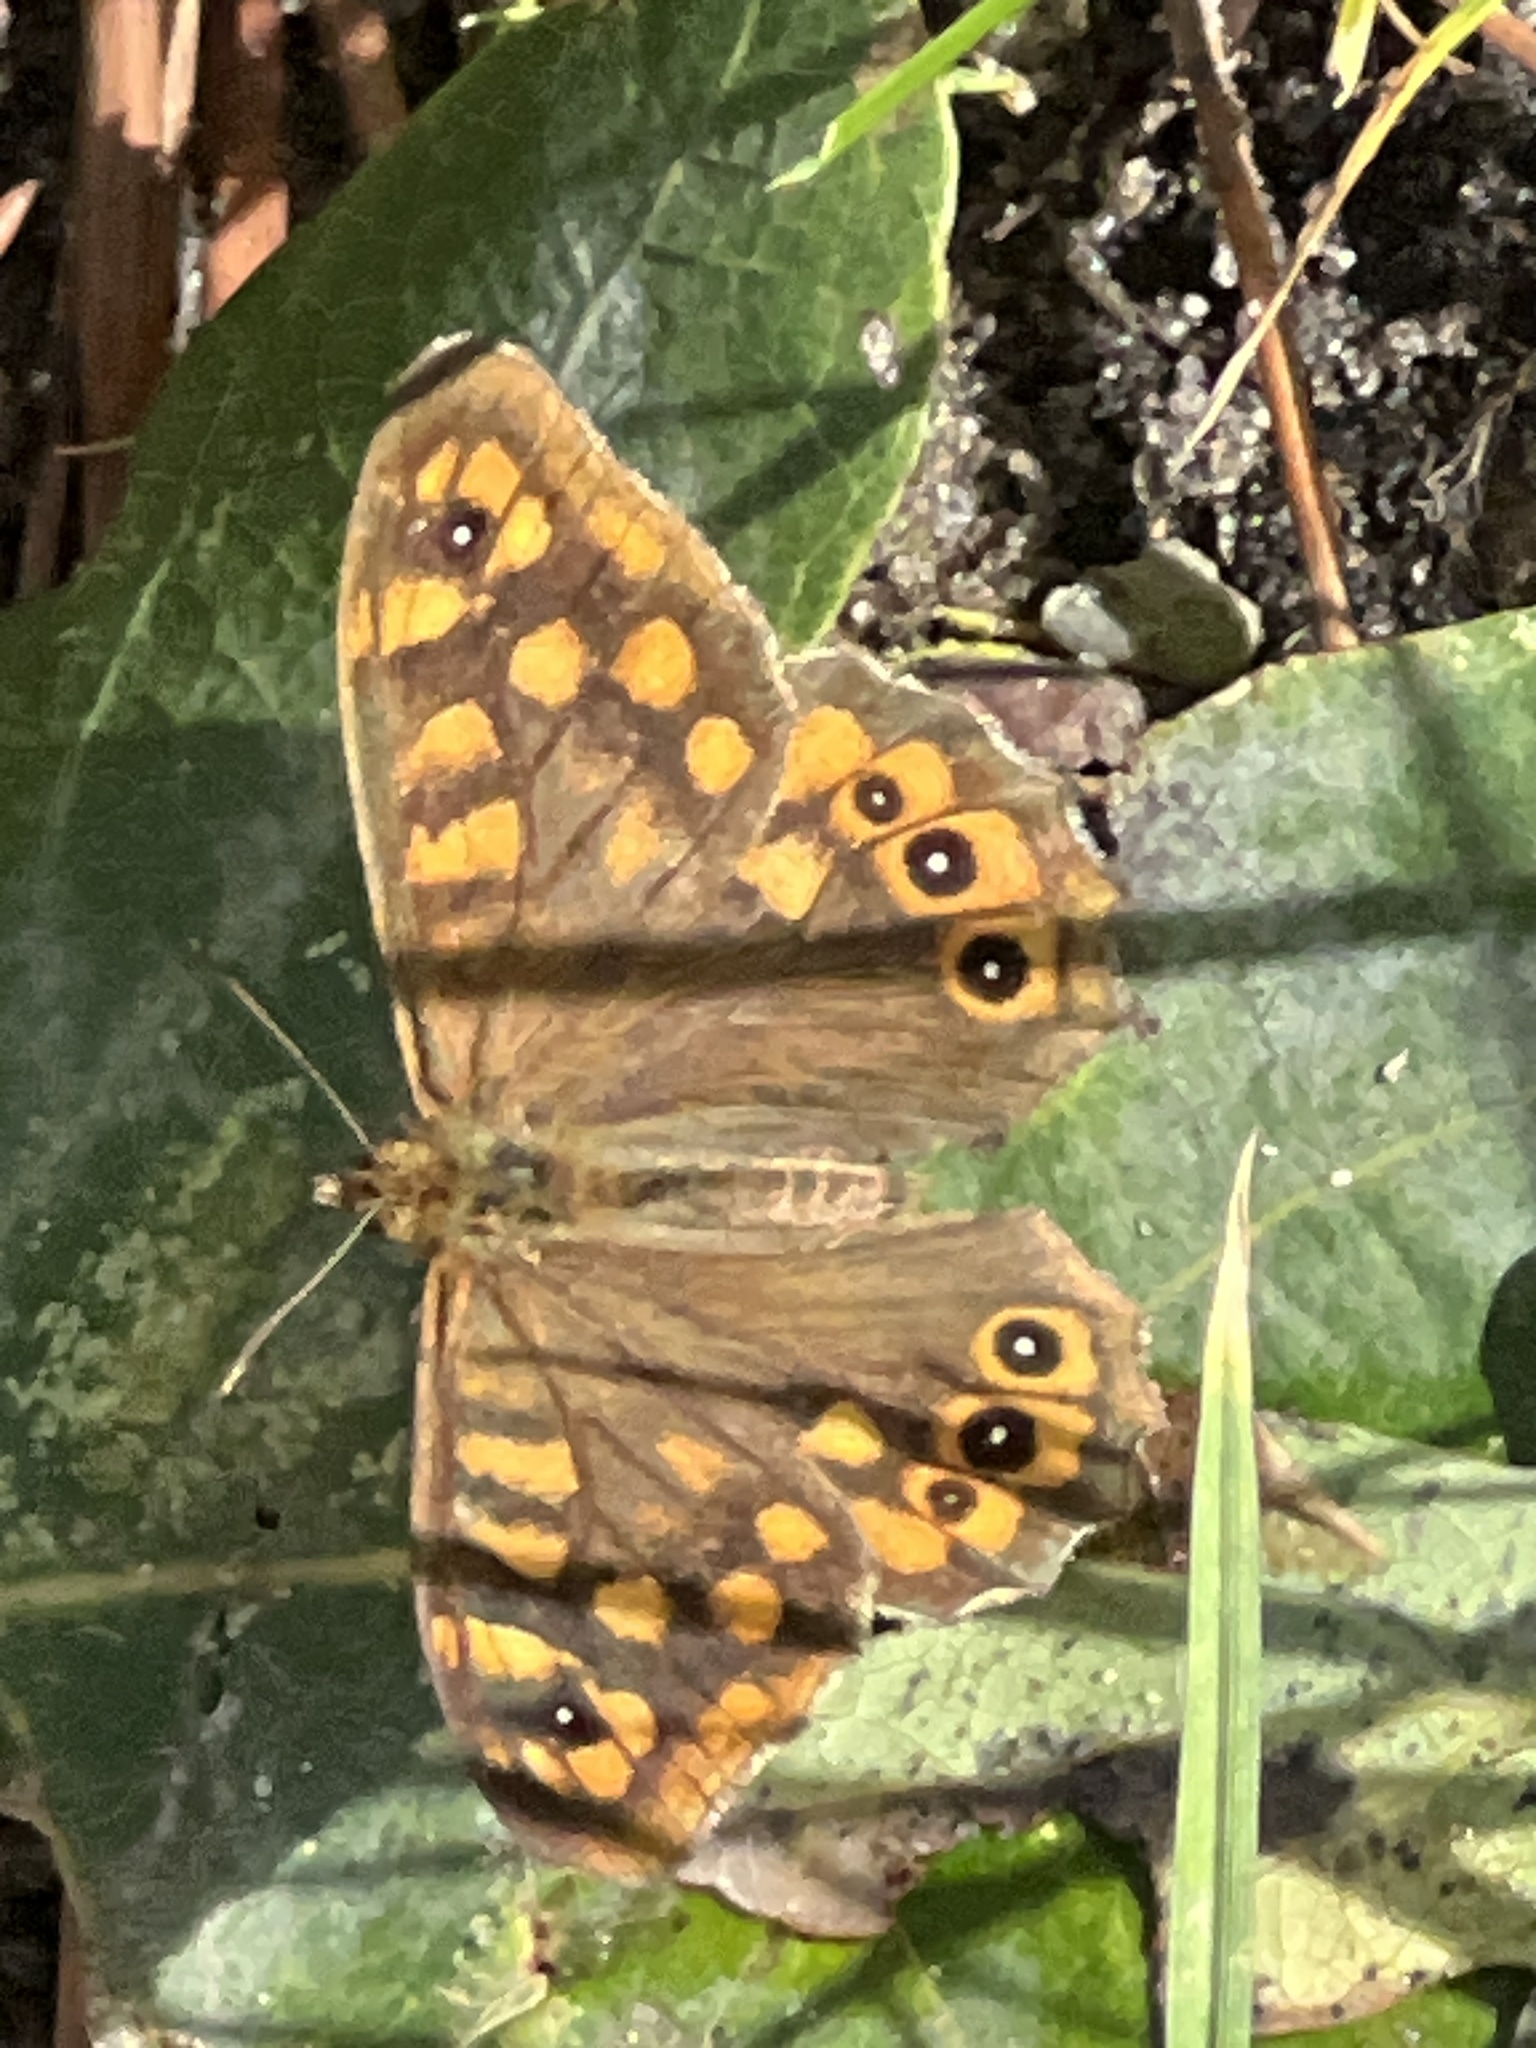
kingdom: Animalia
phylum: Arthropoda
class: Insecta
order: Lepidoptera
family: Nymphalidae
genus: Pararge
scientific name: Pararge aegeria
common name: Speckled wood
